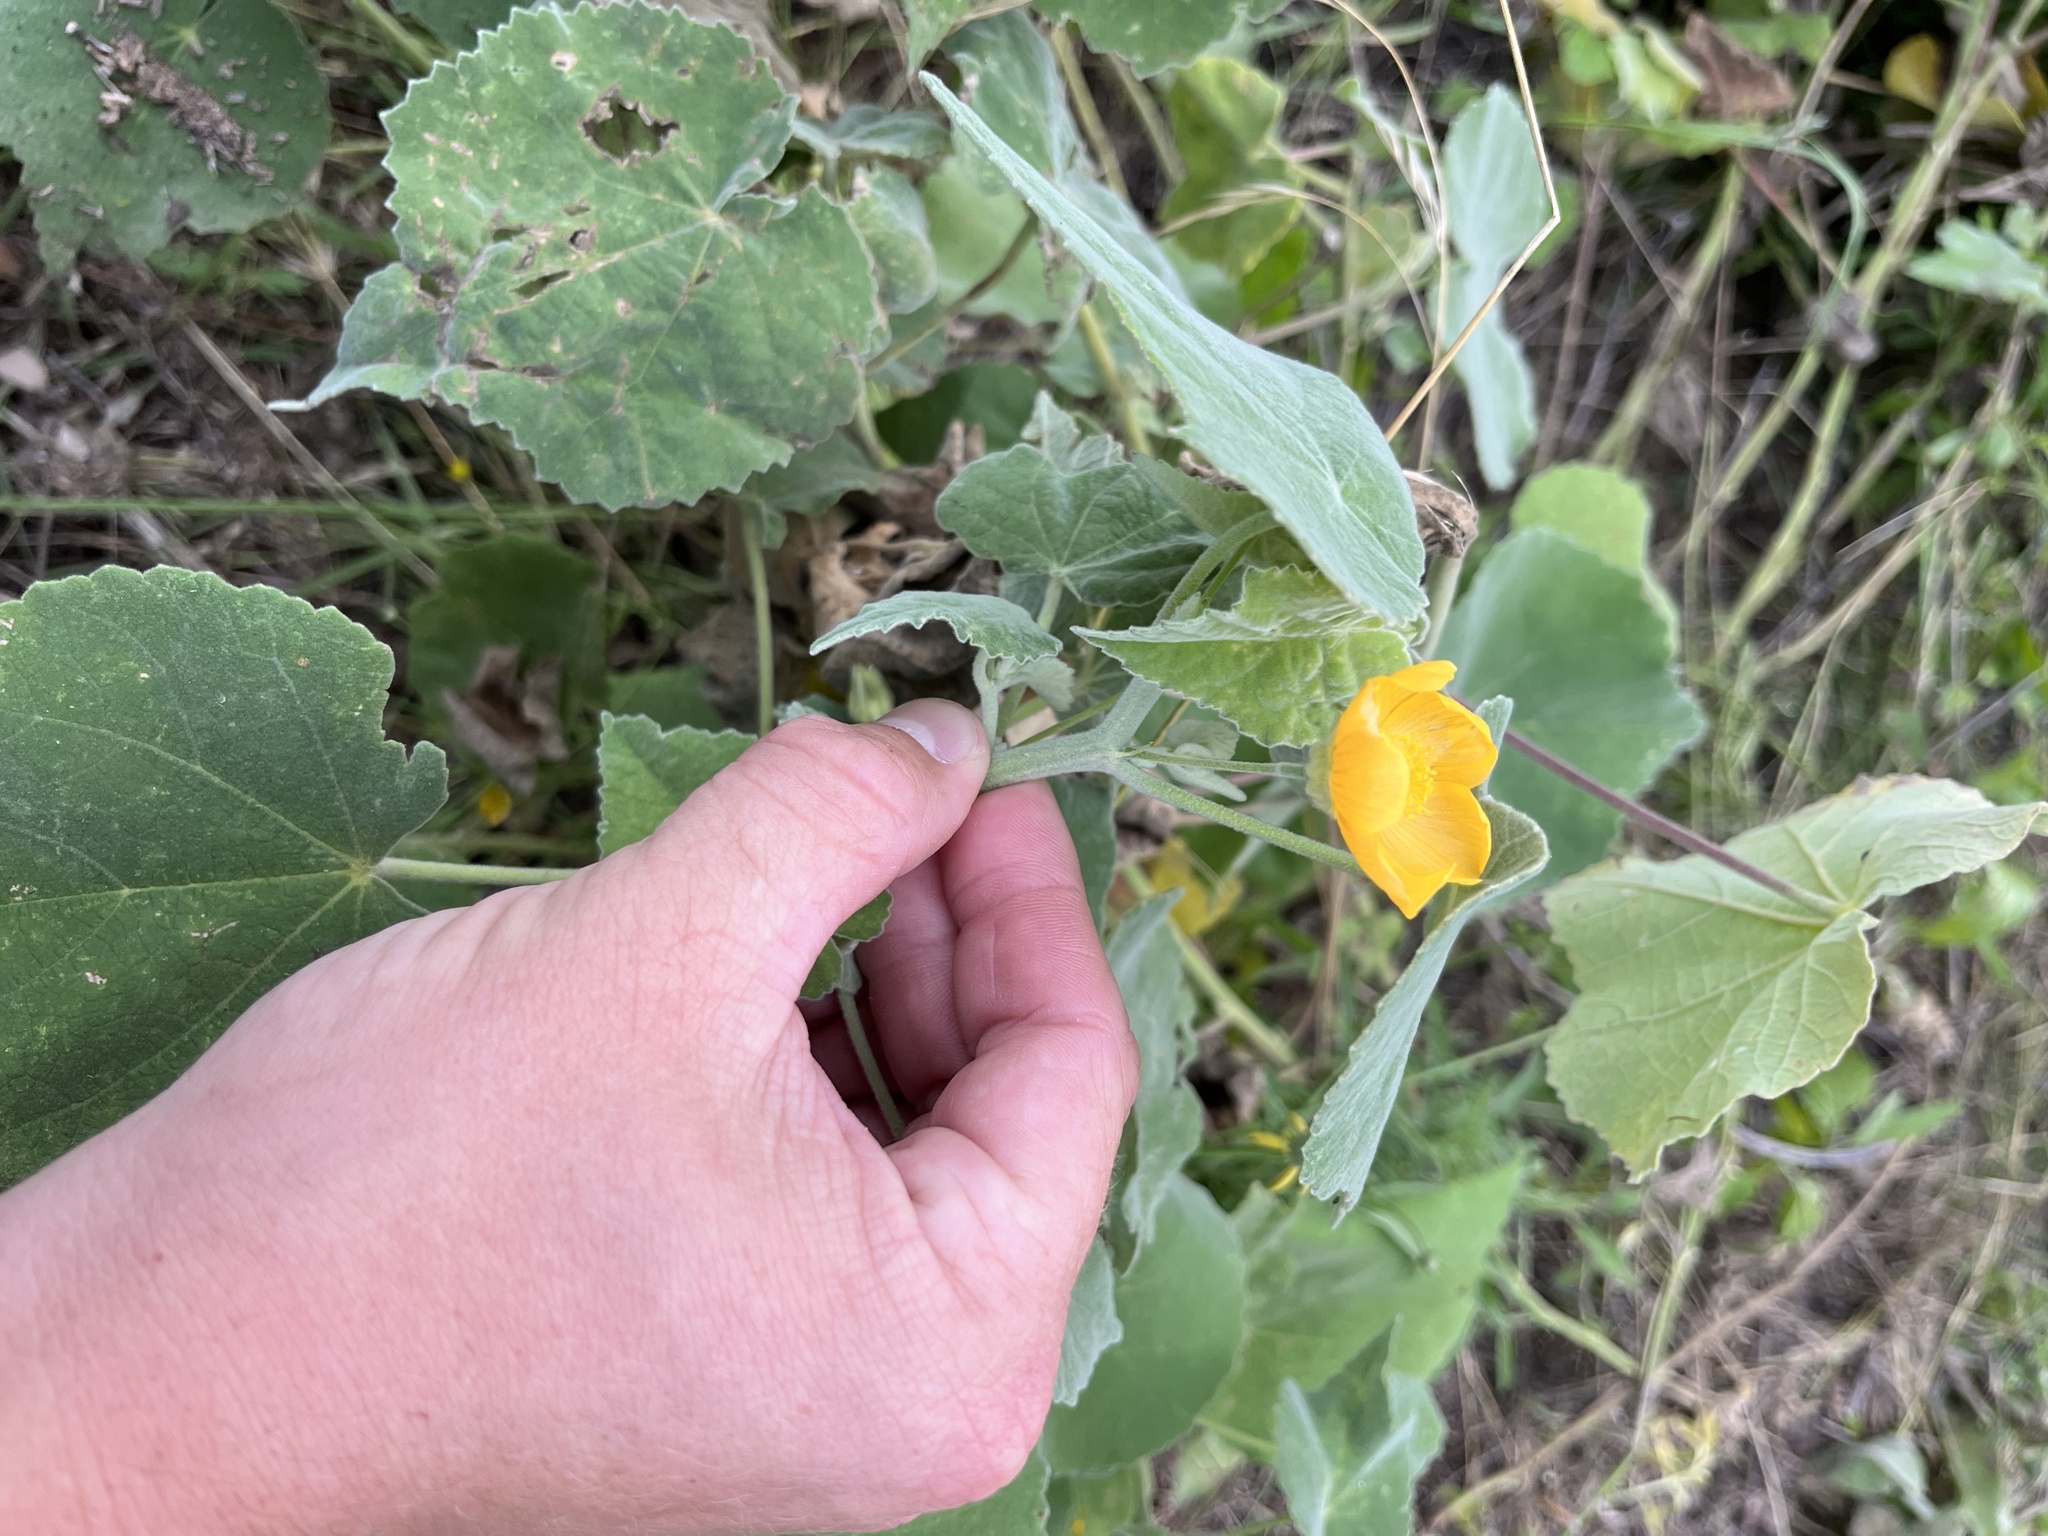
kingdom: Plantae
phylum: Tracheophyta
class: Magnoliopsida
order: Malvales
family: Malvaceae
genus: Allowissadula
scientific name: Allowissadula holosericea
